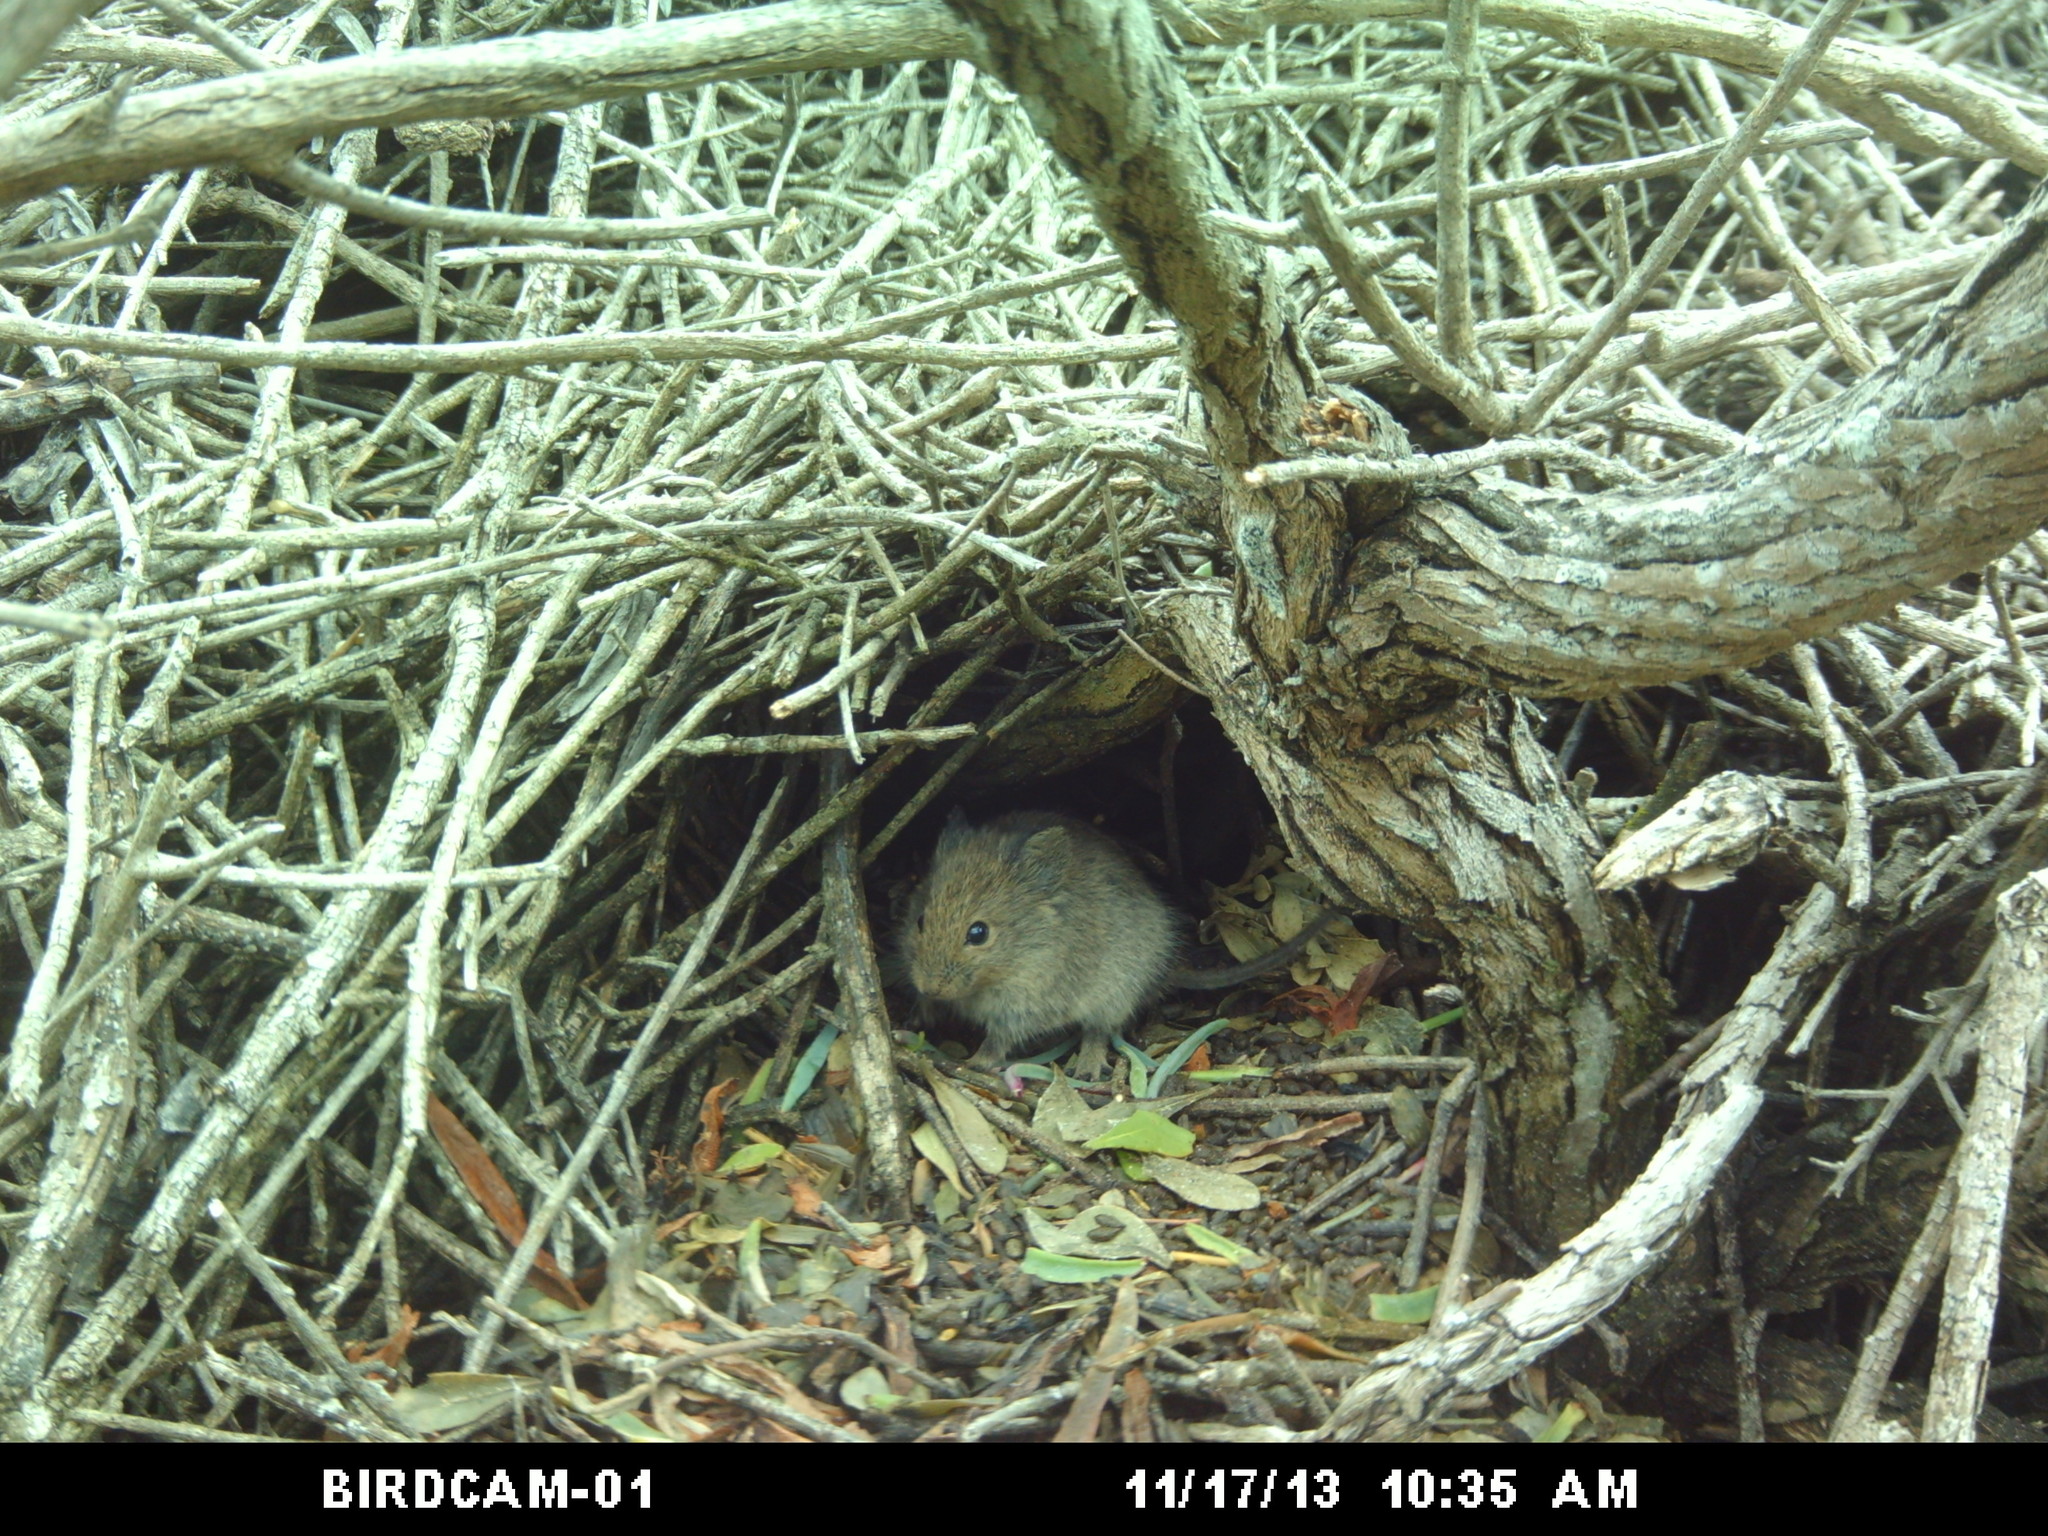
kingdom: Animalia
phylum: Chordata
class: Mammalia
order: Rodentia
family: Muridae
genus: Myotomys
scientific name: Myotomys unisulcatus
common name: Bush karroo rat
